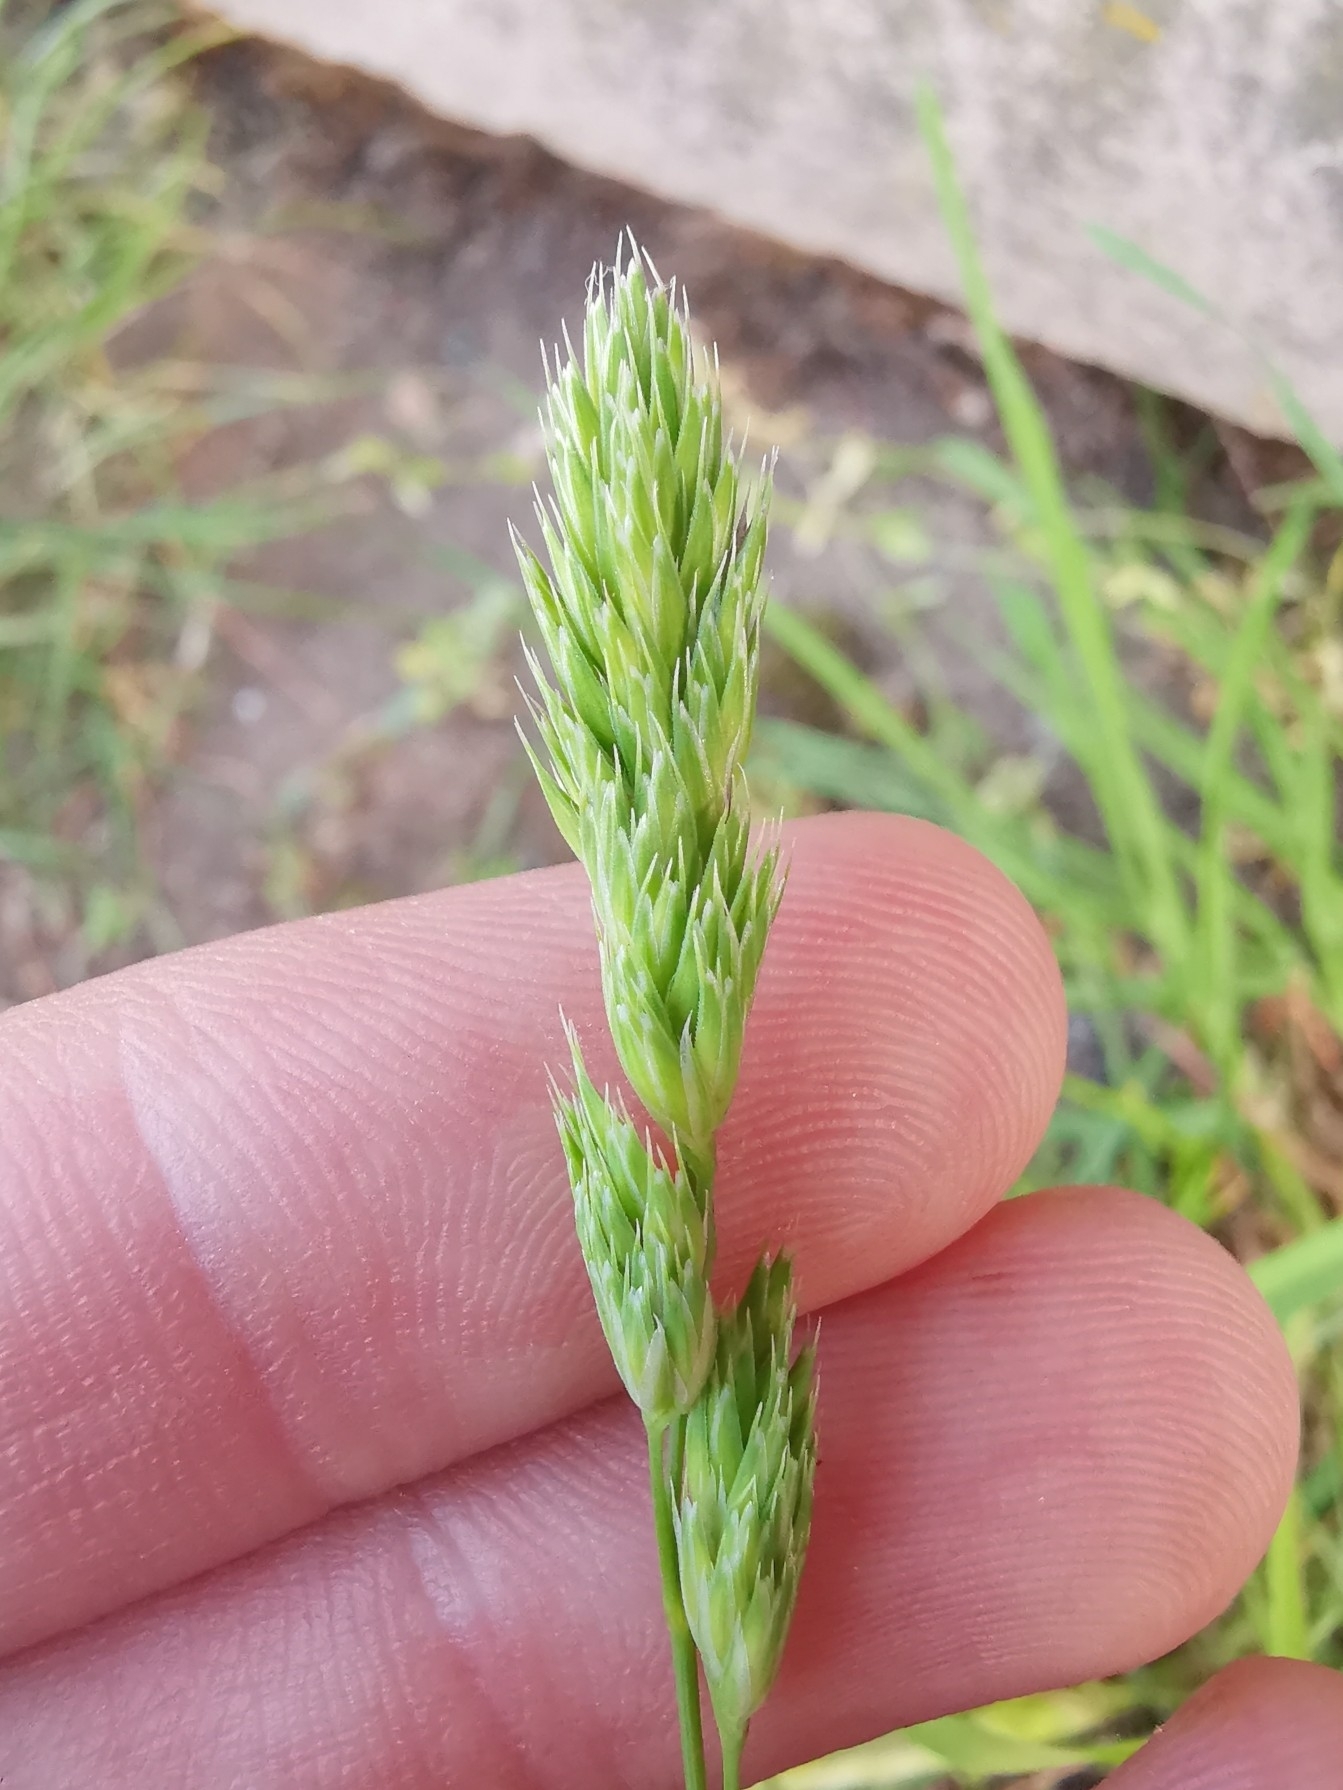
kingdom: Plantae
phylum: Tracheophyta
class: Liliopsida
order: Poales
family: Poaceae
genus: Dactylis
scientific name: Dactylis glomerata
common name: Orchardgrass
